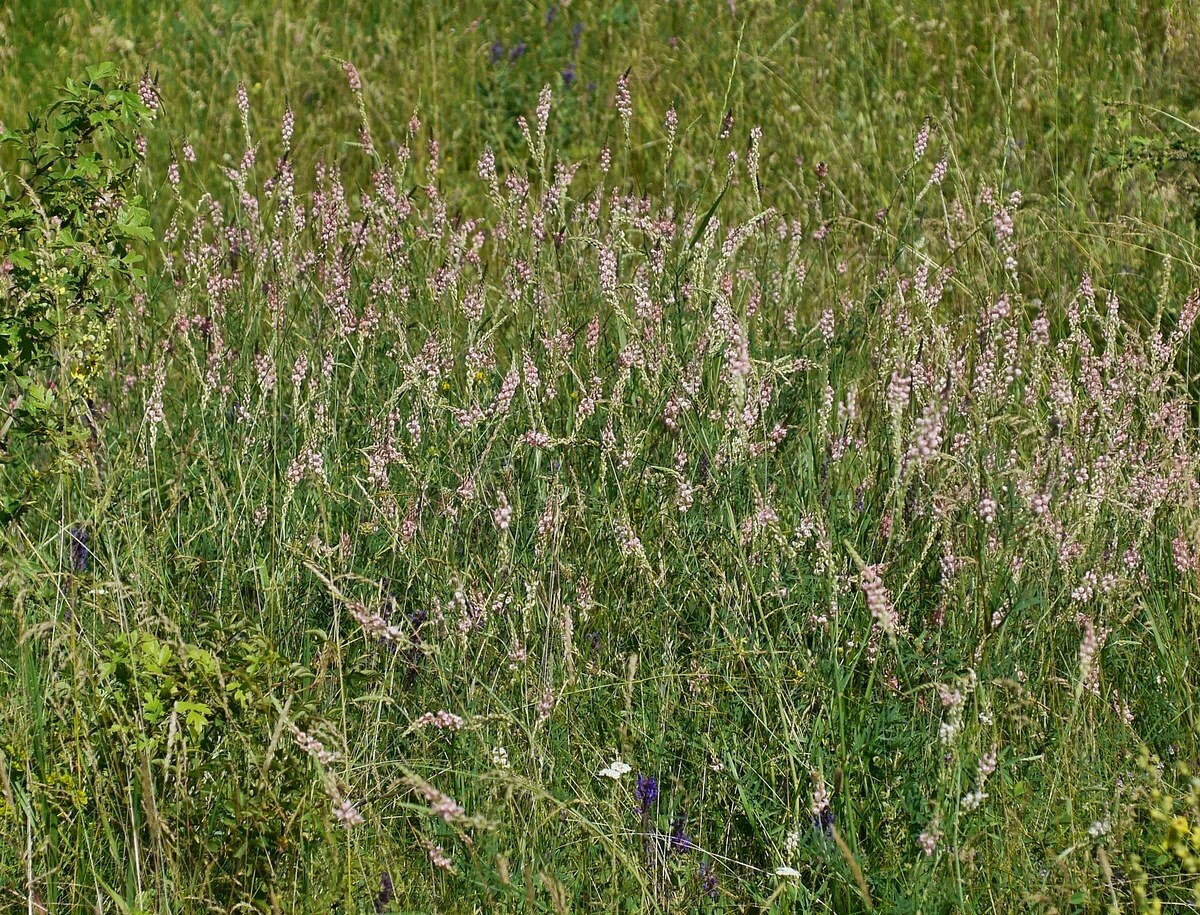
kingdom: Plantae
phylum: Tracheophyta
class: Magnoliopsida
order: Fabales
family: Fabaceae
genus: Onobrychis
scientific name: Onobrychis arenaria
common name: Sand esparcet
